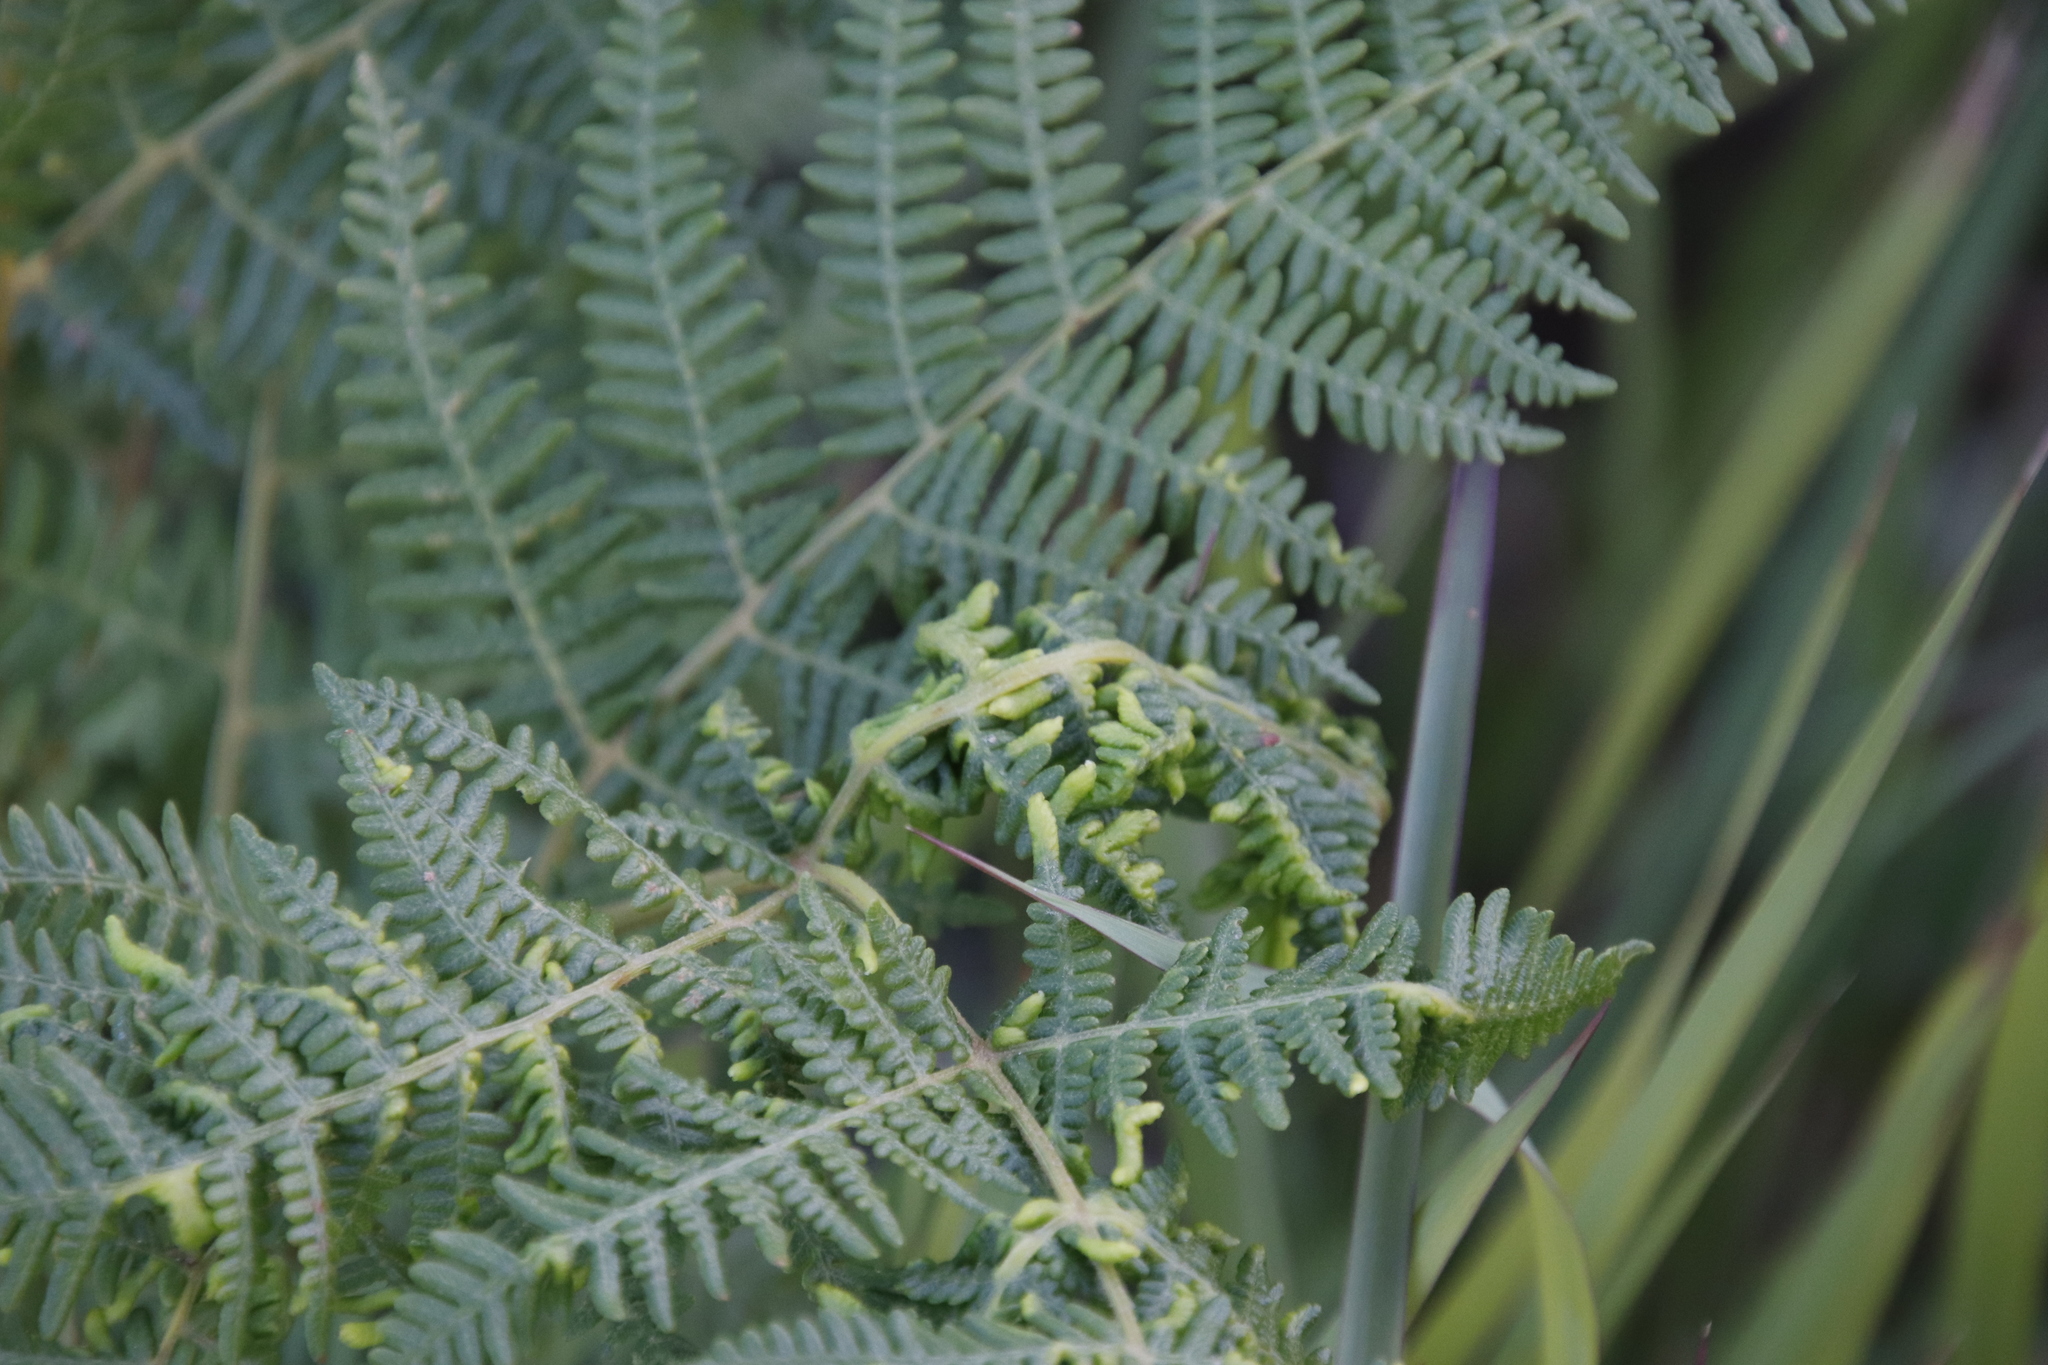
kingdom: Plantae
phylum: Tracheophyta
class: Polypodiopsida
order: Polypodiales
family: Dennstaedtiaceae
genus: Pteridium
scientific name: Pteridium aquilinum
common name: Bracken
